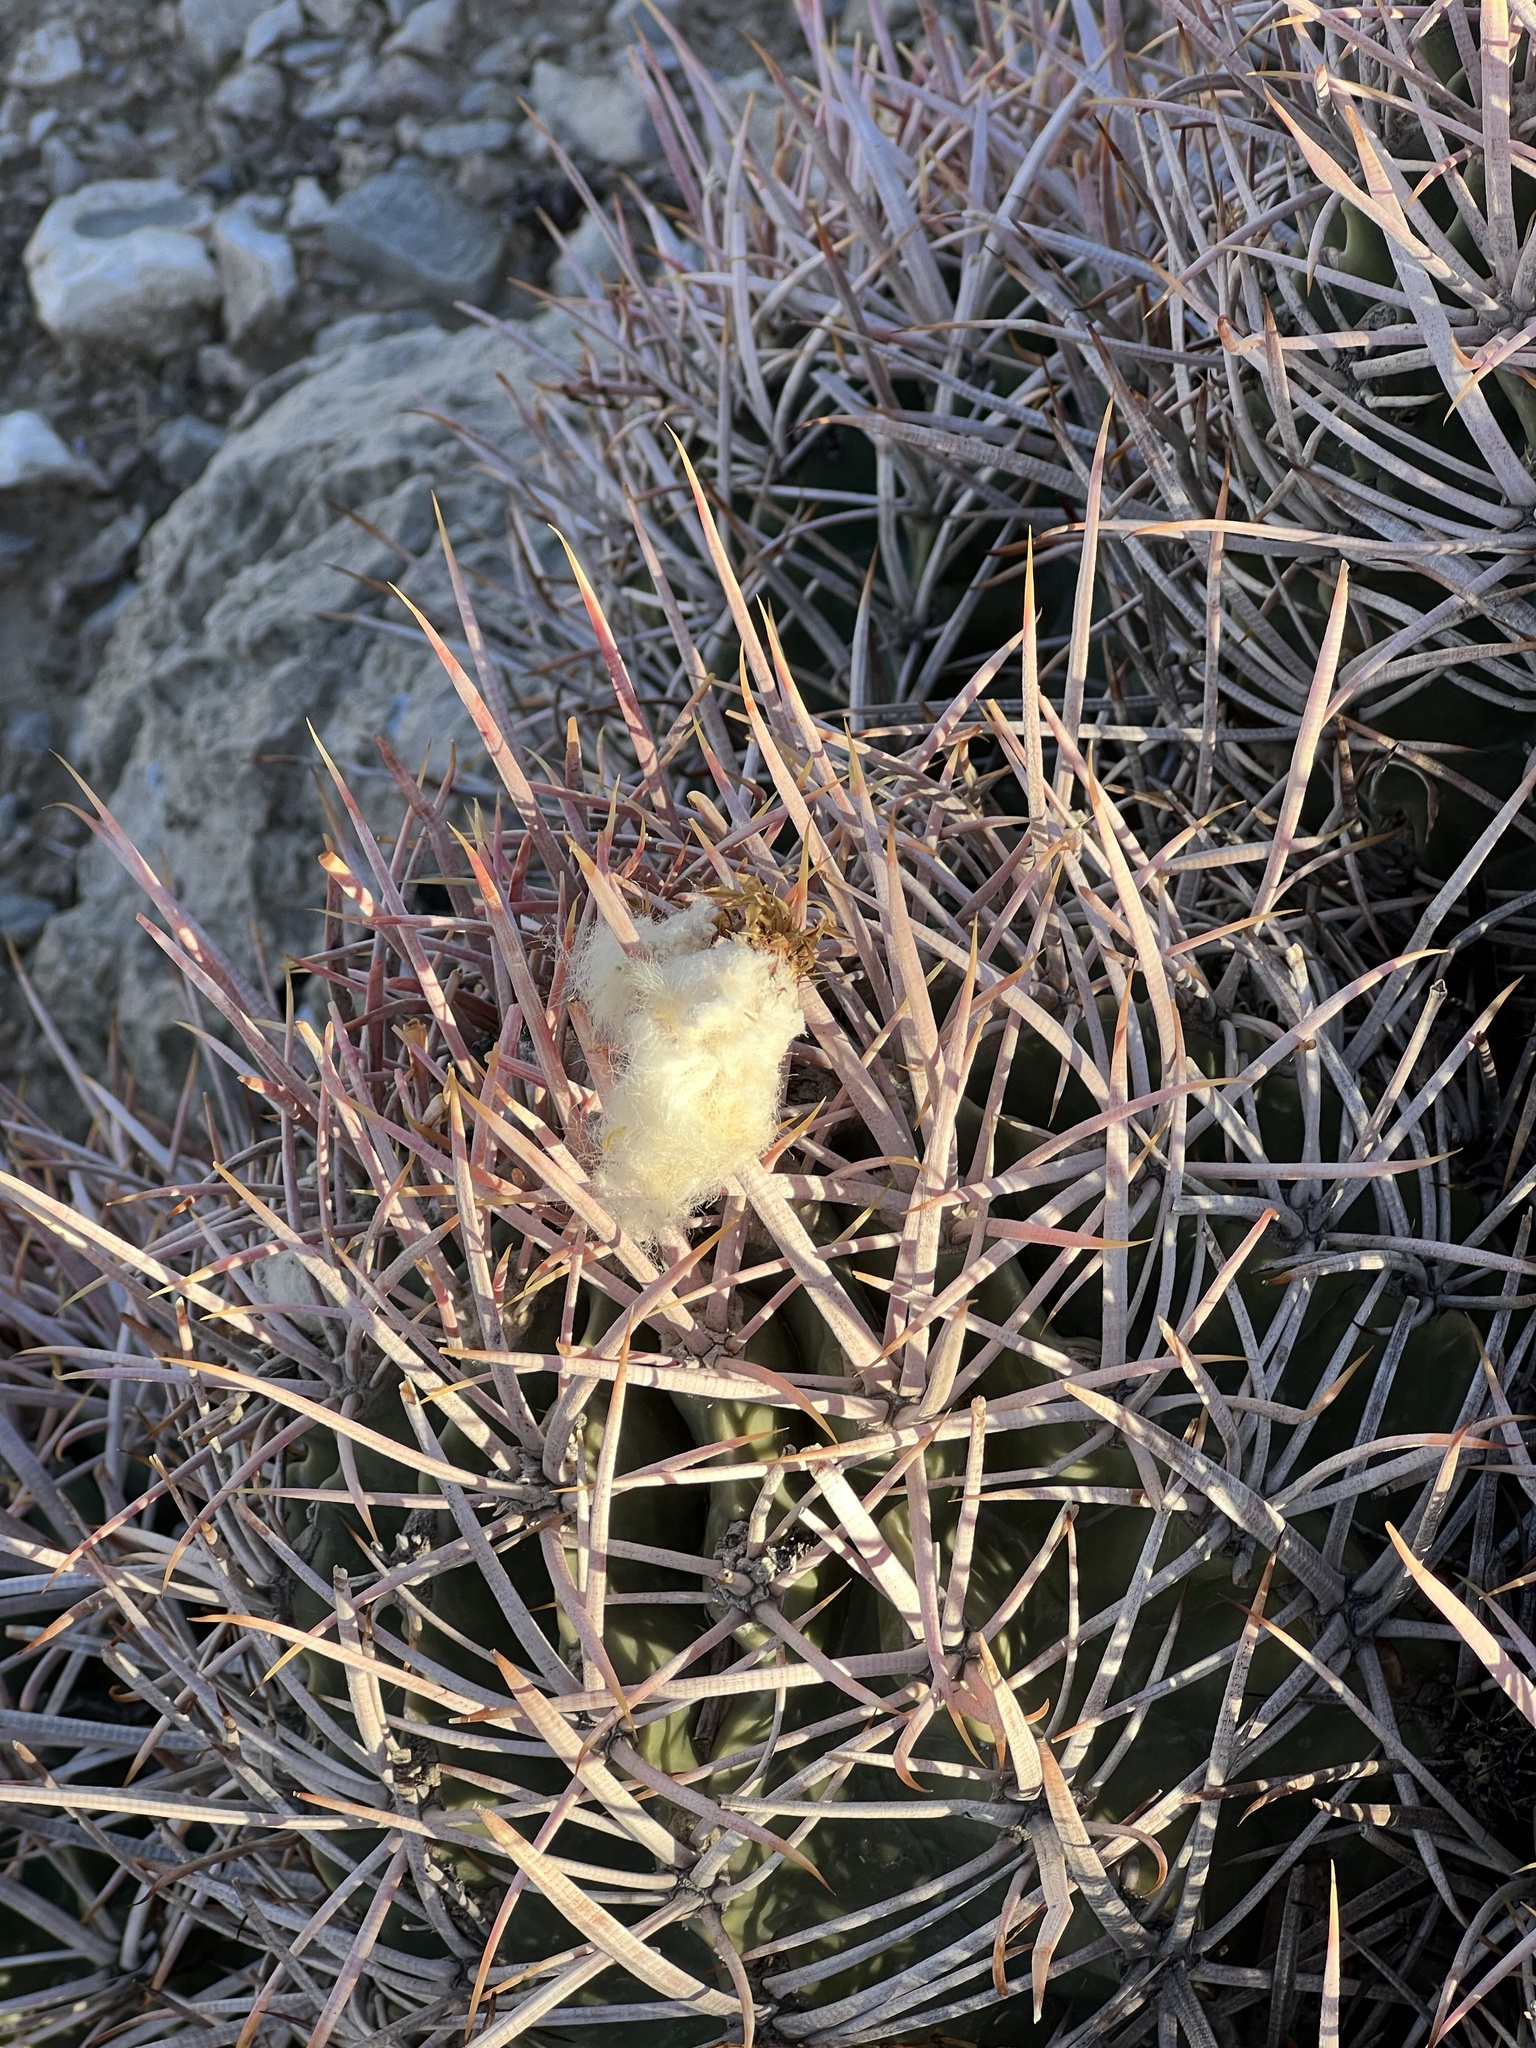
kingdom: Plantae
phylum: Tracheophyta
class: Magnoliopsida
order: Caryophyllales
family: Cactaceae
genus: Echinocactus
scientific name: Echinocactus polycephalus
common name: Cottontop cactus
